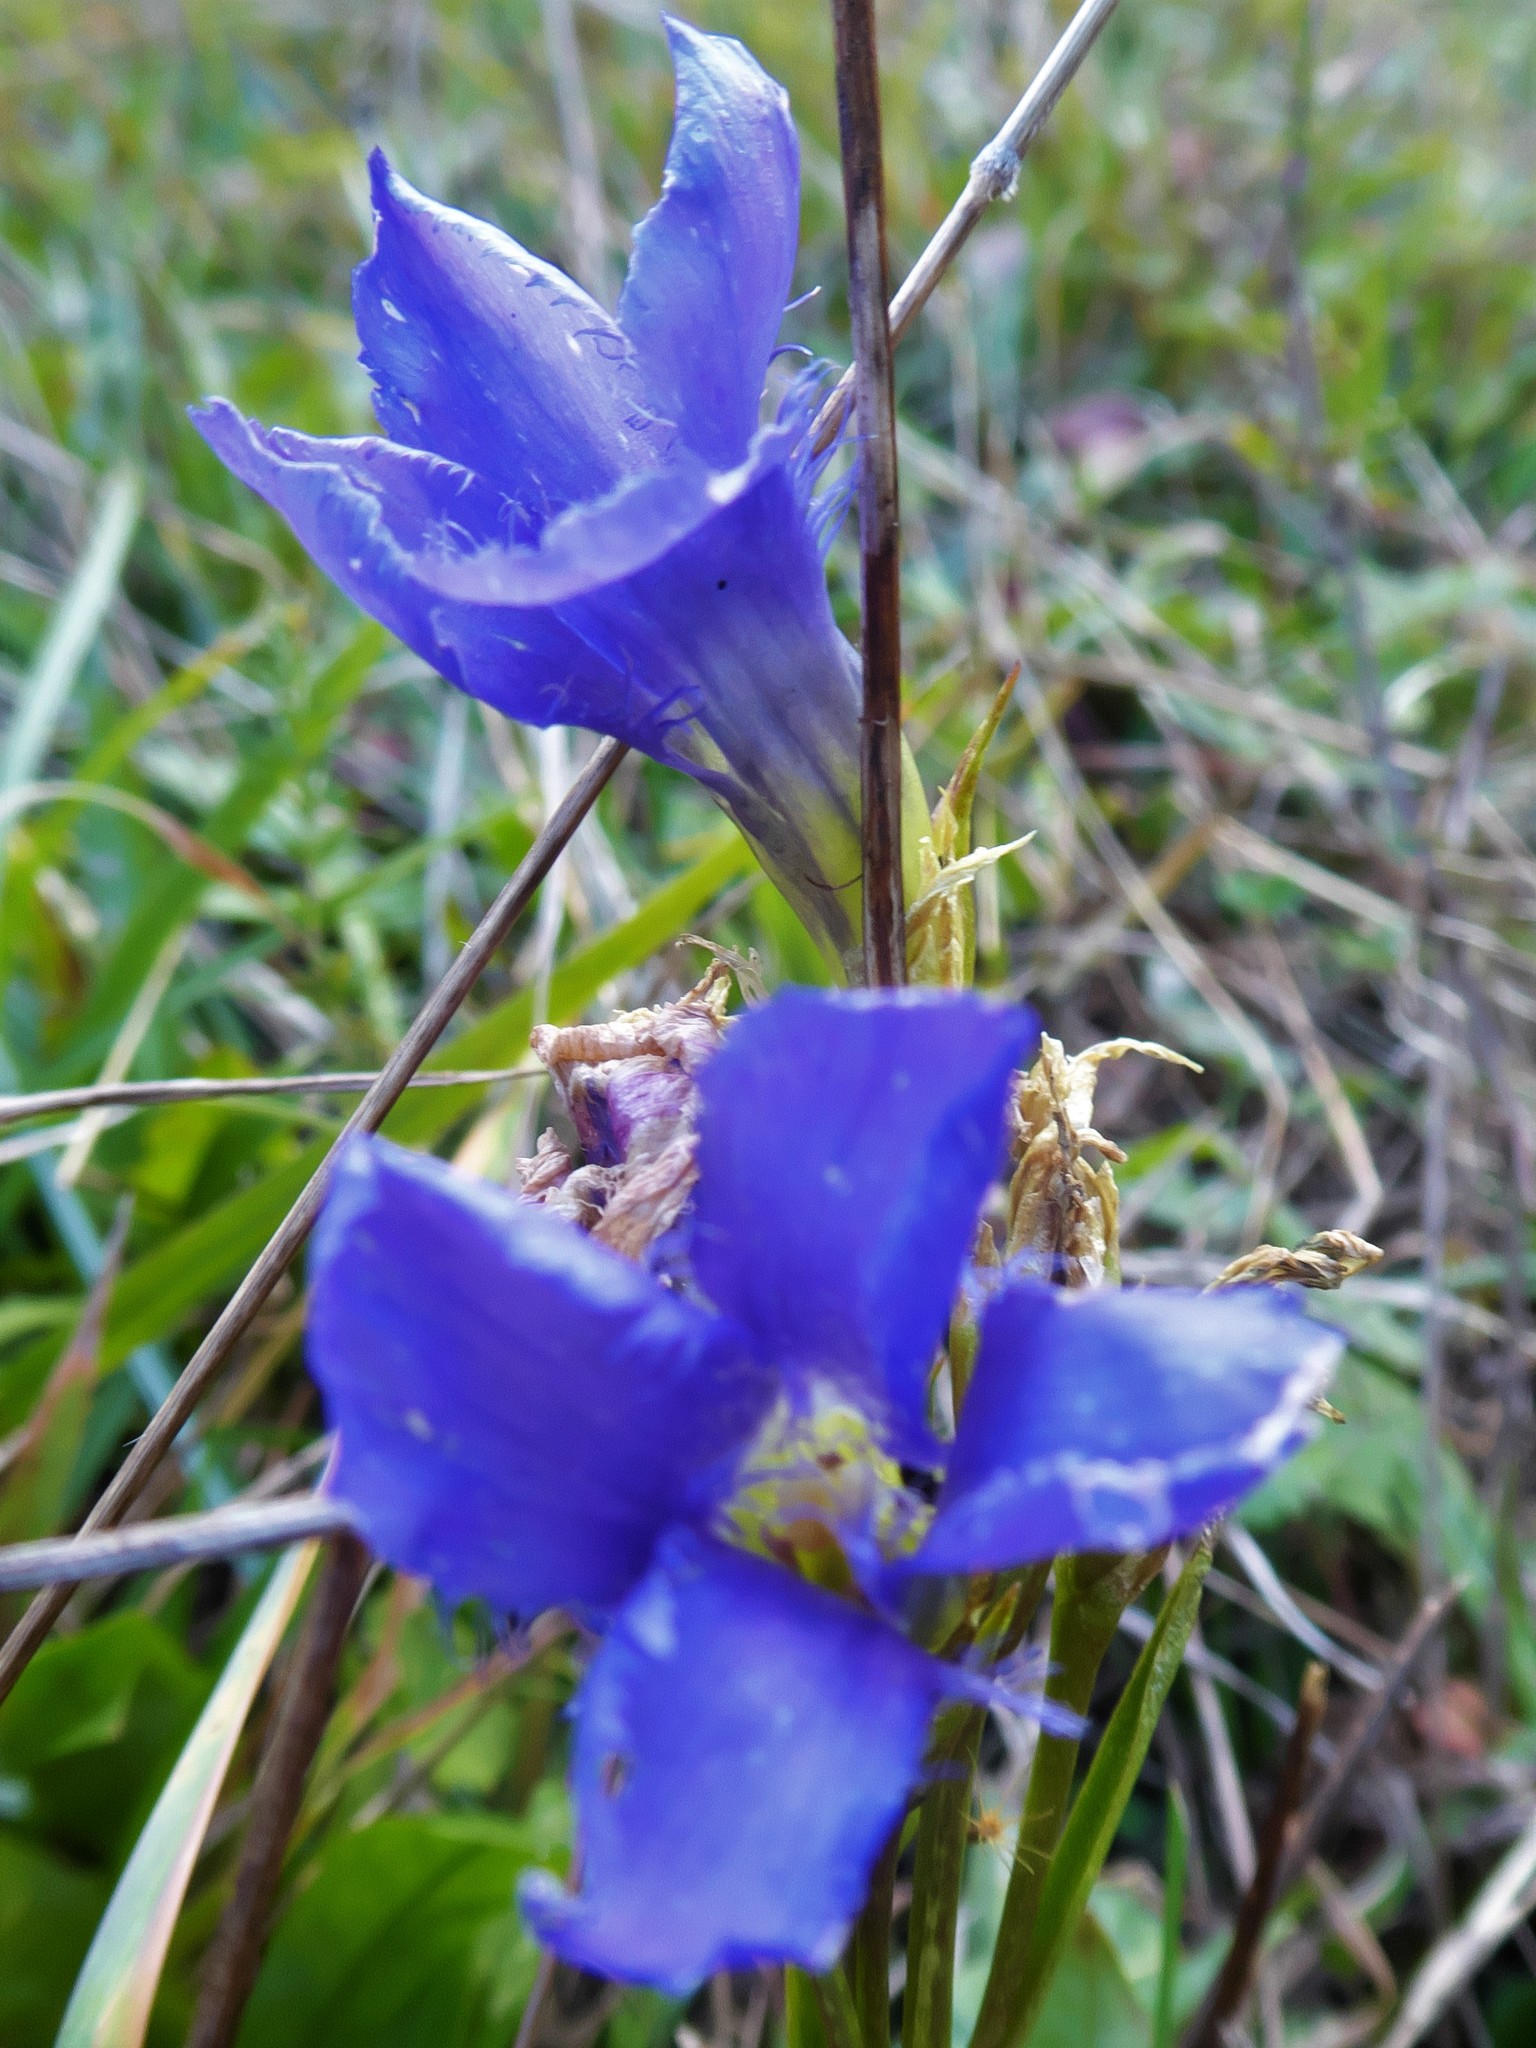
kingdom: Plantae
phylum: Tracheophyta
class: Magnoliopsida
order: Gentianales
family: Gentianaceae
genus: Gentianopsis
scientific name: Gentianopsis ciliata
